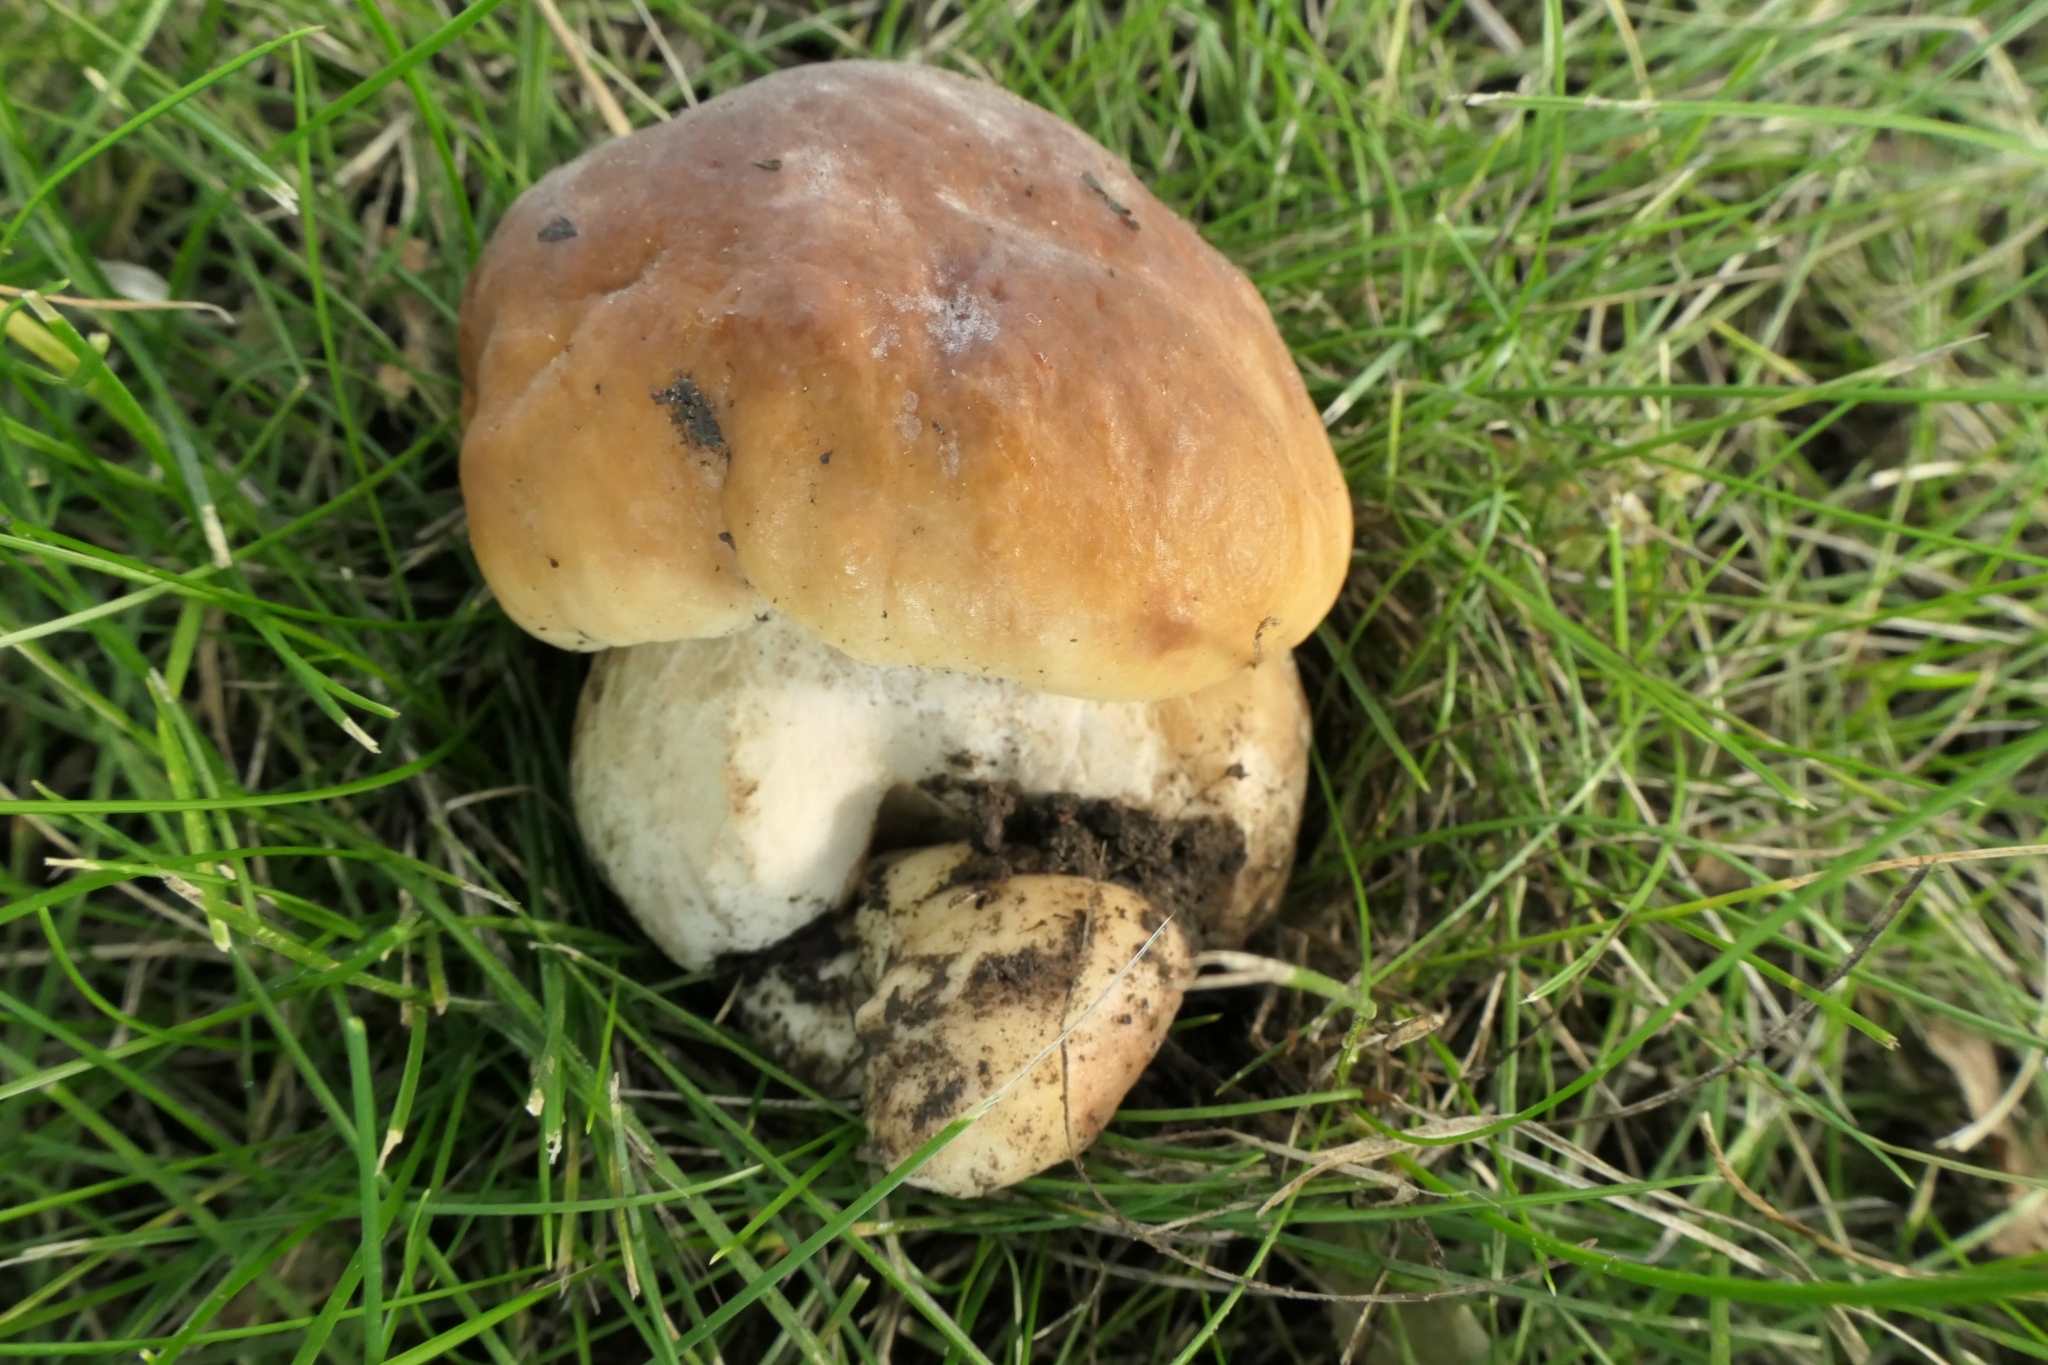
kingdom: Fungi
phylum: Basidiomycota
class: Agaricomycetes
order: Boletales
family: Boletaceae
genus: Boletus
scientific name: Boletus edulis
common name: Cep
